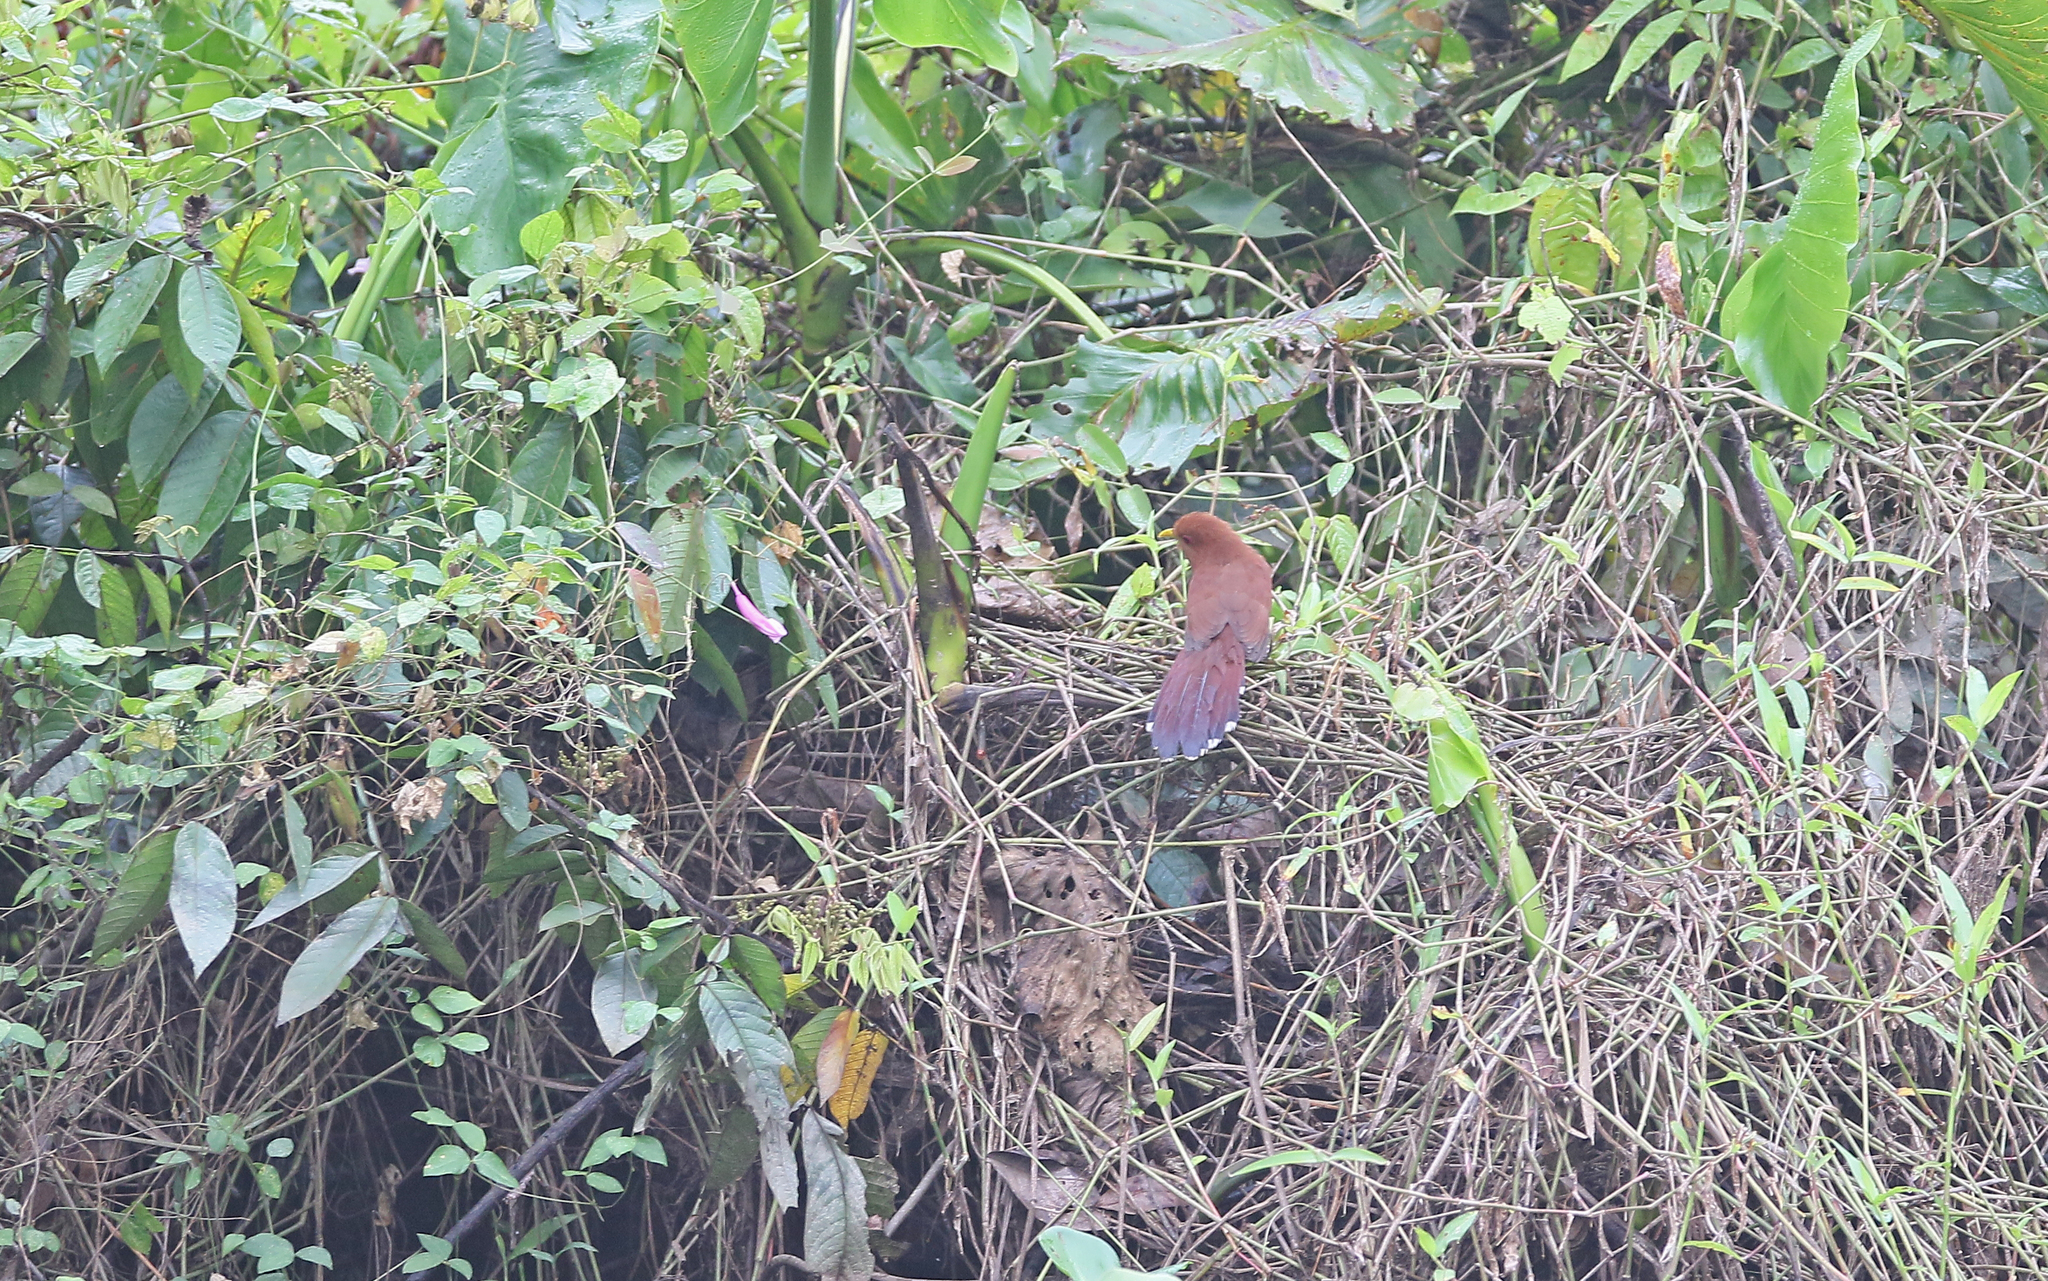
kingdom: Animalia
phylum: Chordata
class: Aves
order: Cuculiformes
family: Cuculidae
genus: Piaya
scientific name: Piaya minuta
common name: Little cuckoo
